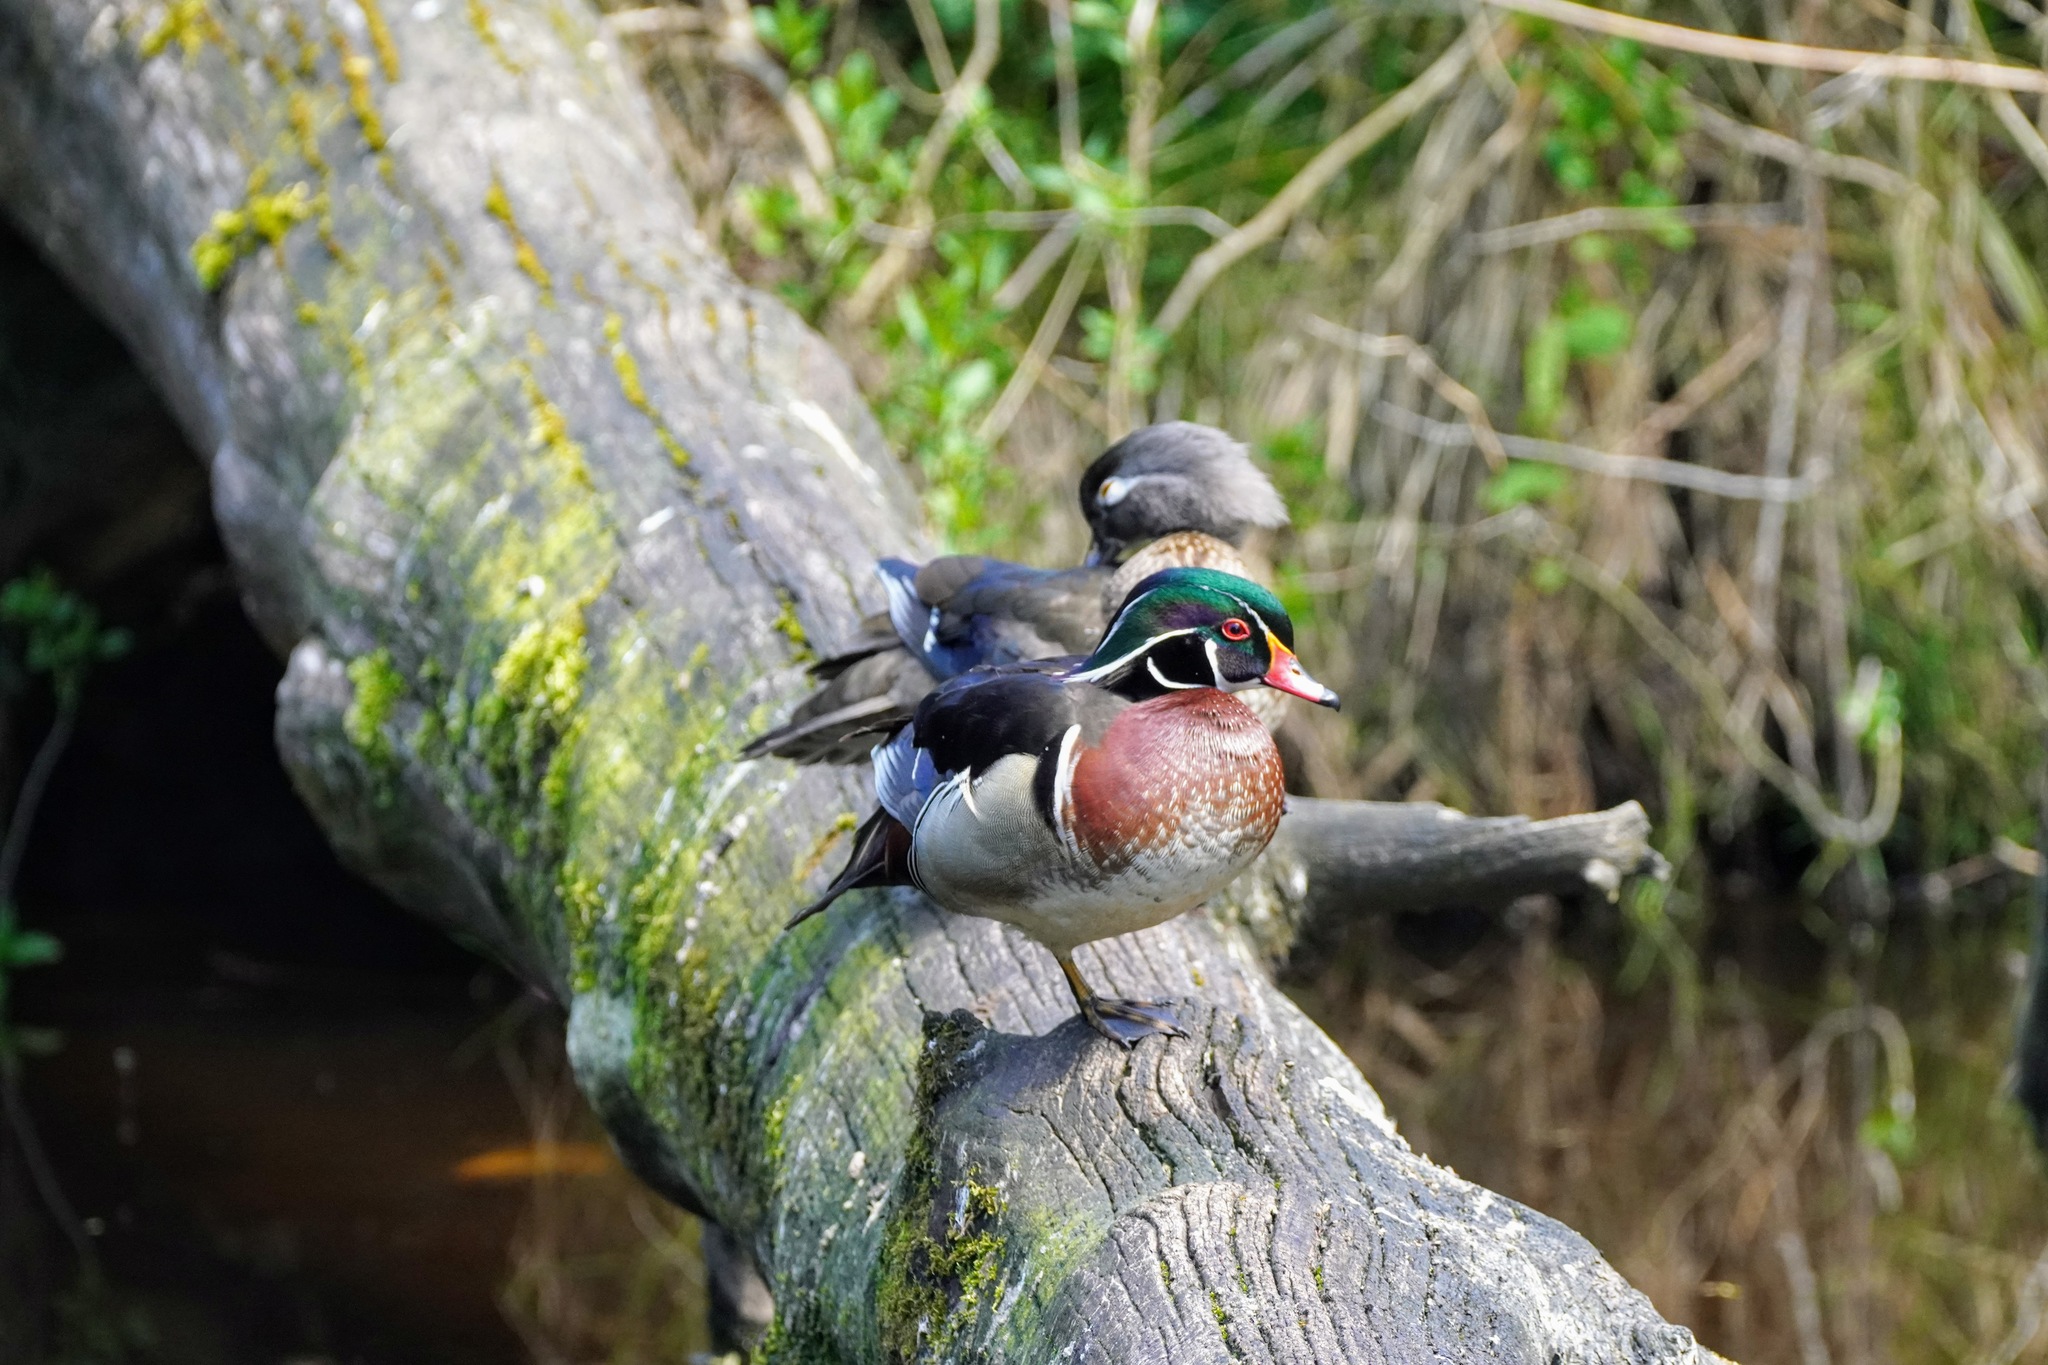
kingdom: Animalia
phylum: Chordata
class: Aves
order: Anseriformes
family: Anatidae
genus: Aix
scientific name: Aix sponsa
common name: Wood duck
